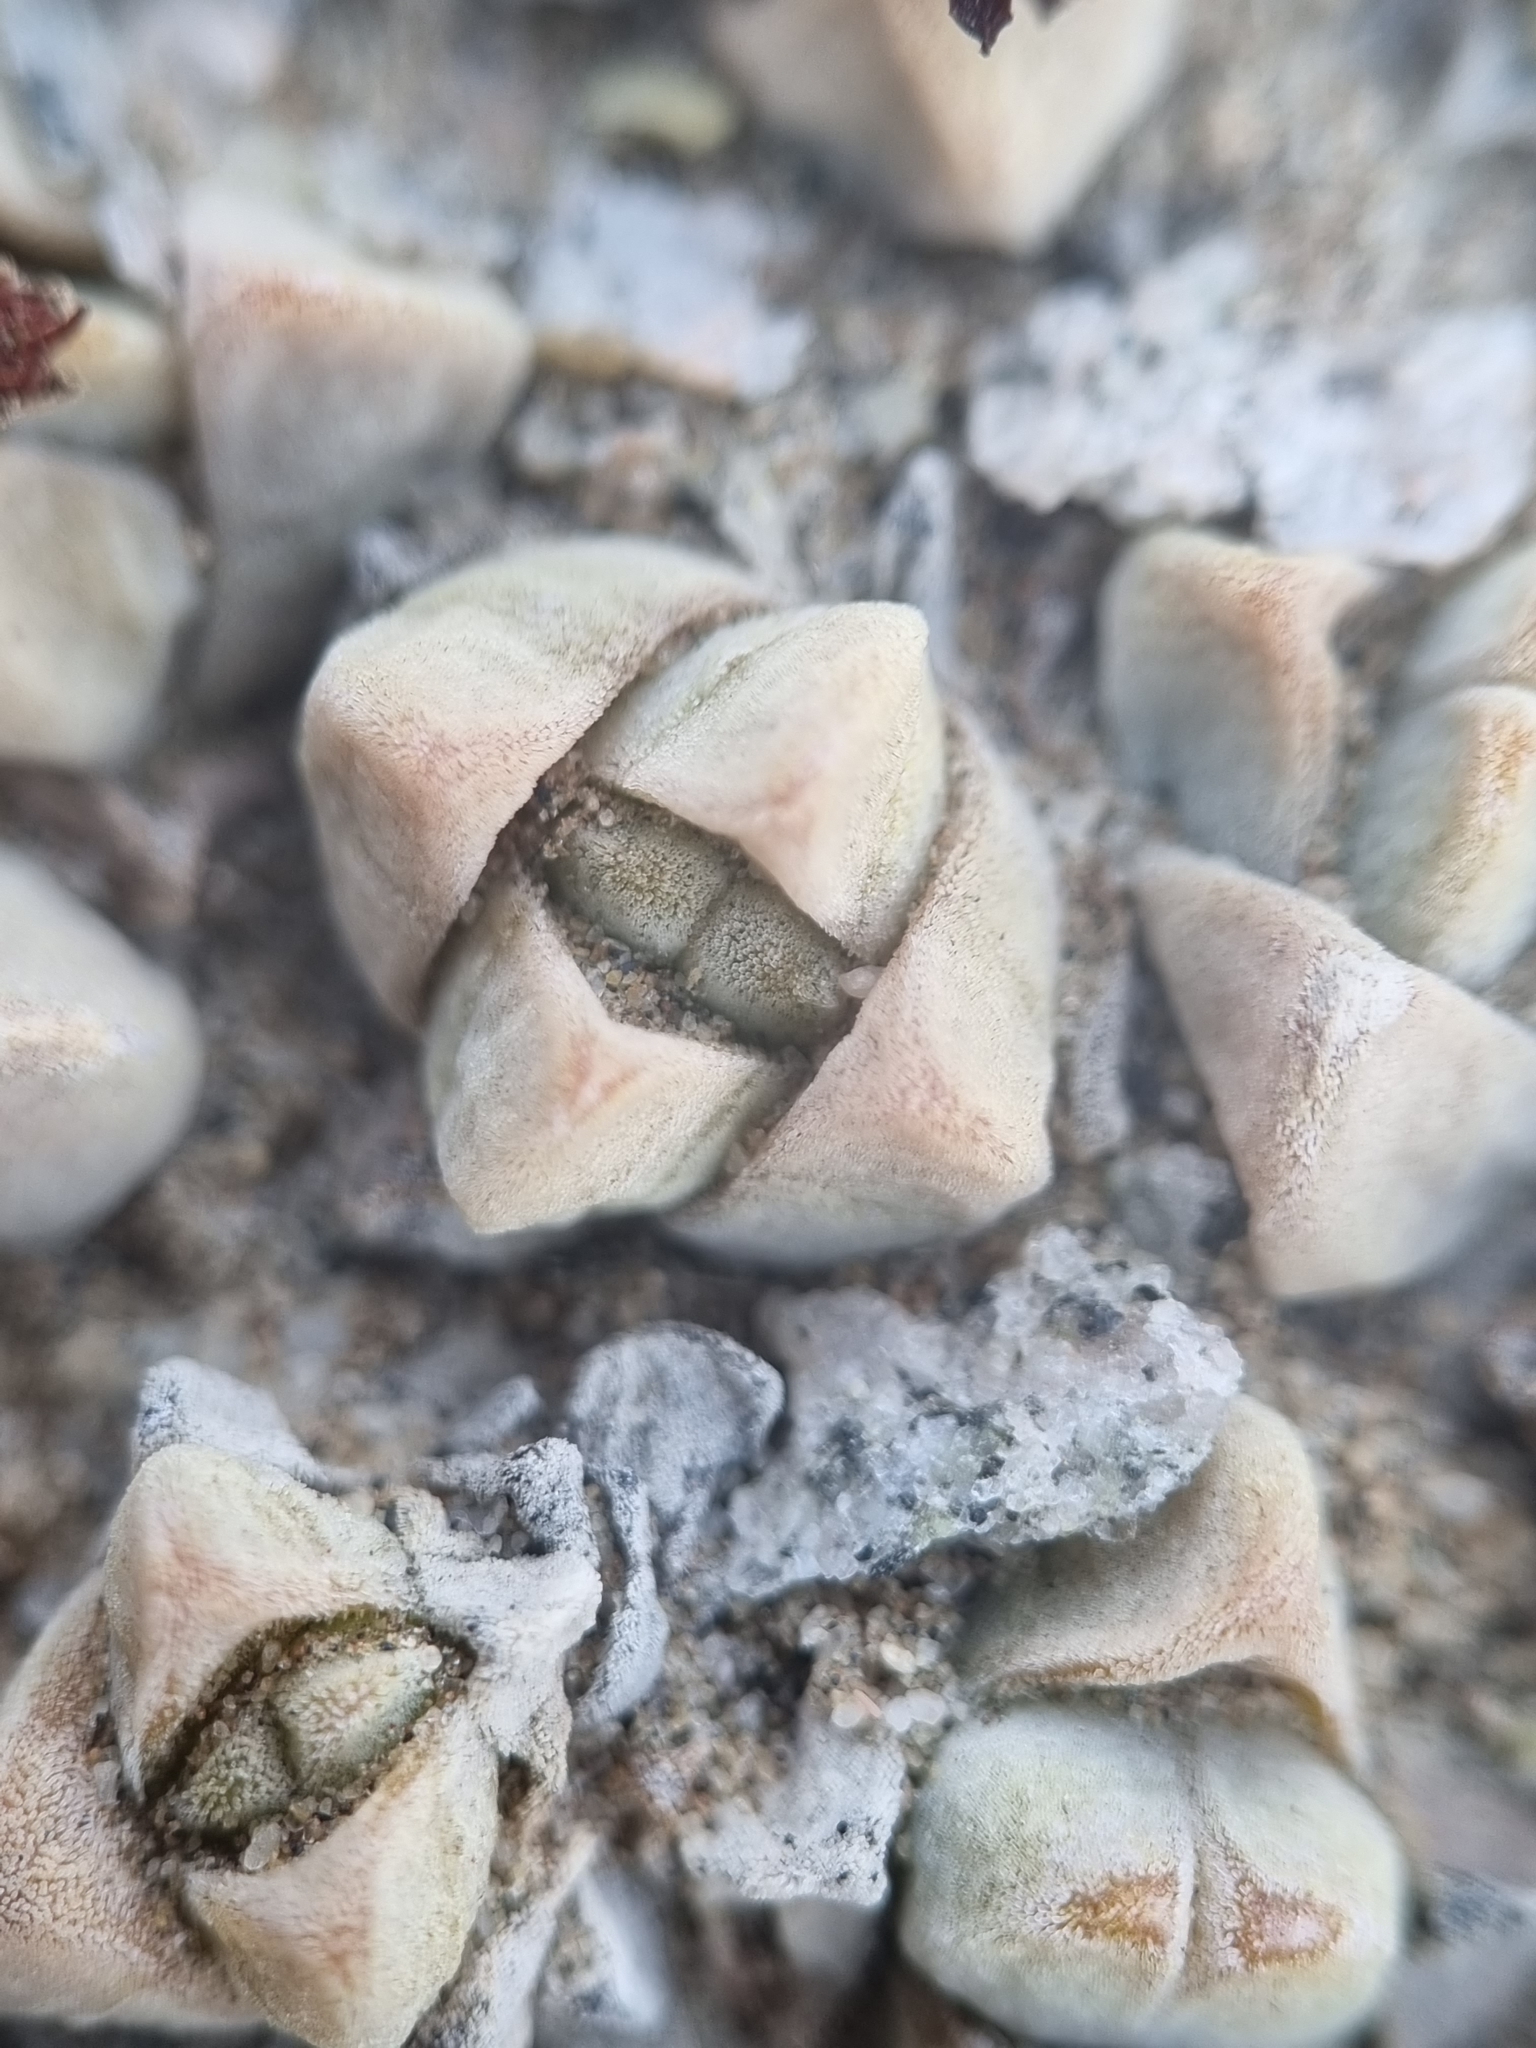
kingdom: Plantae
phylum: Tracheophyta
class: Magnoliopsida
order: Saxifragales
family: Crassulaceae
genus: Crassula
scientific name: Crassula elegans
